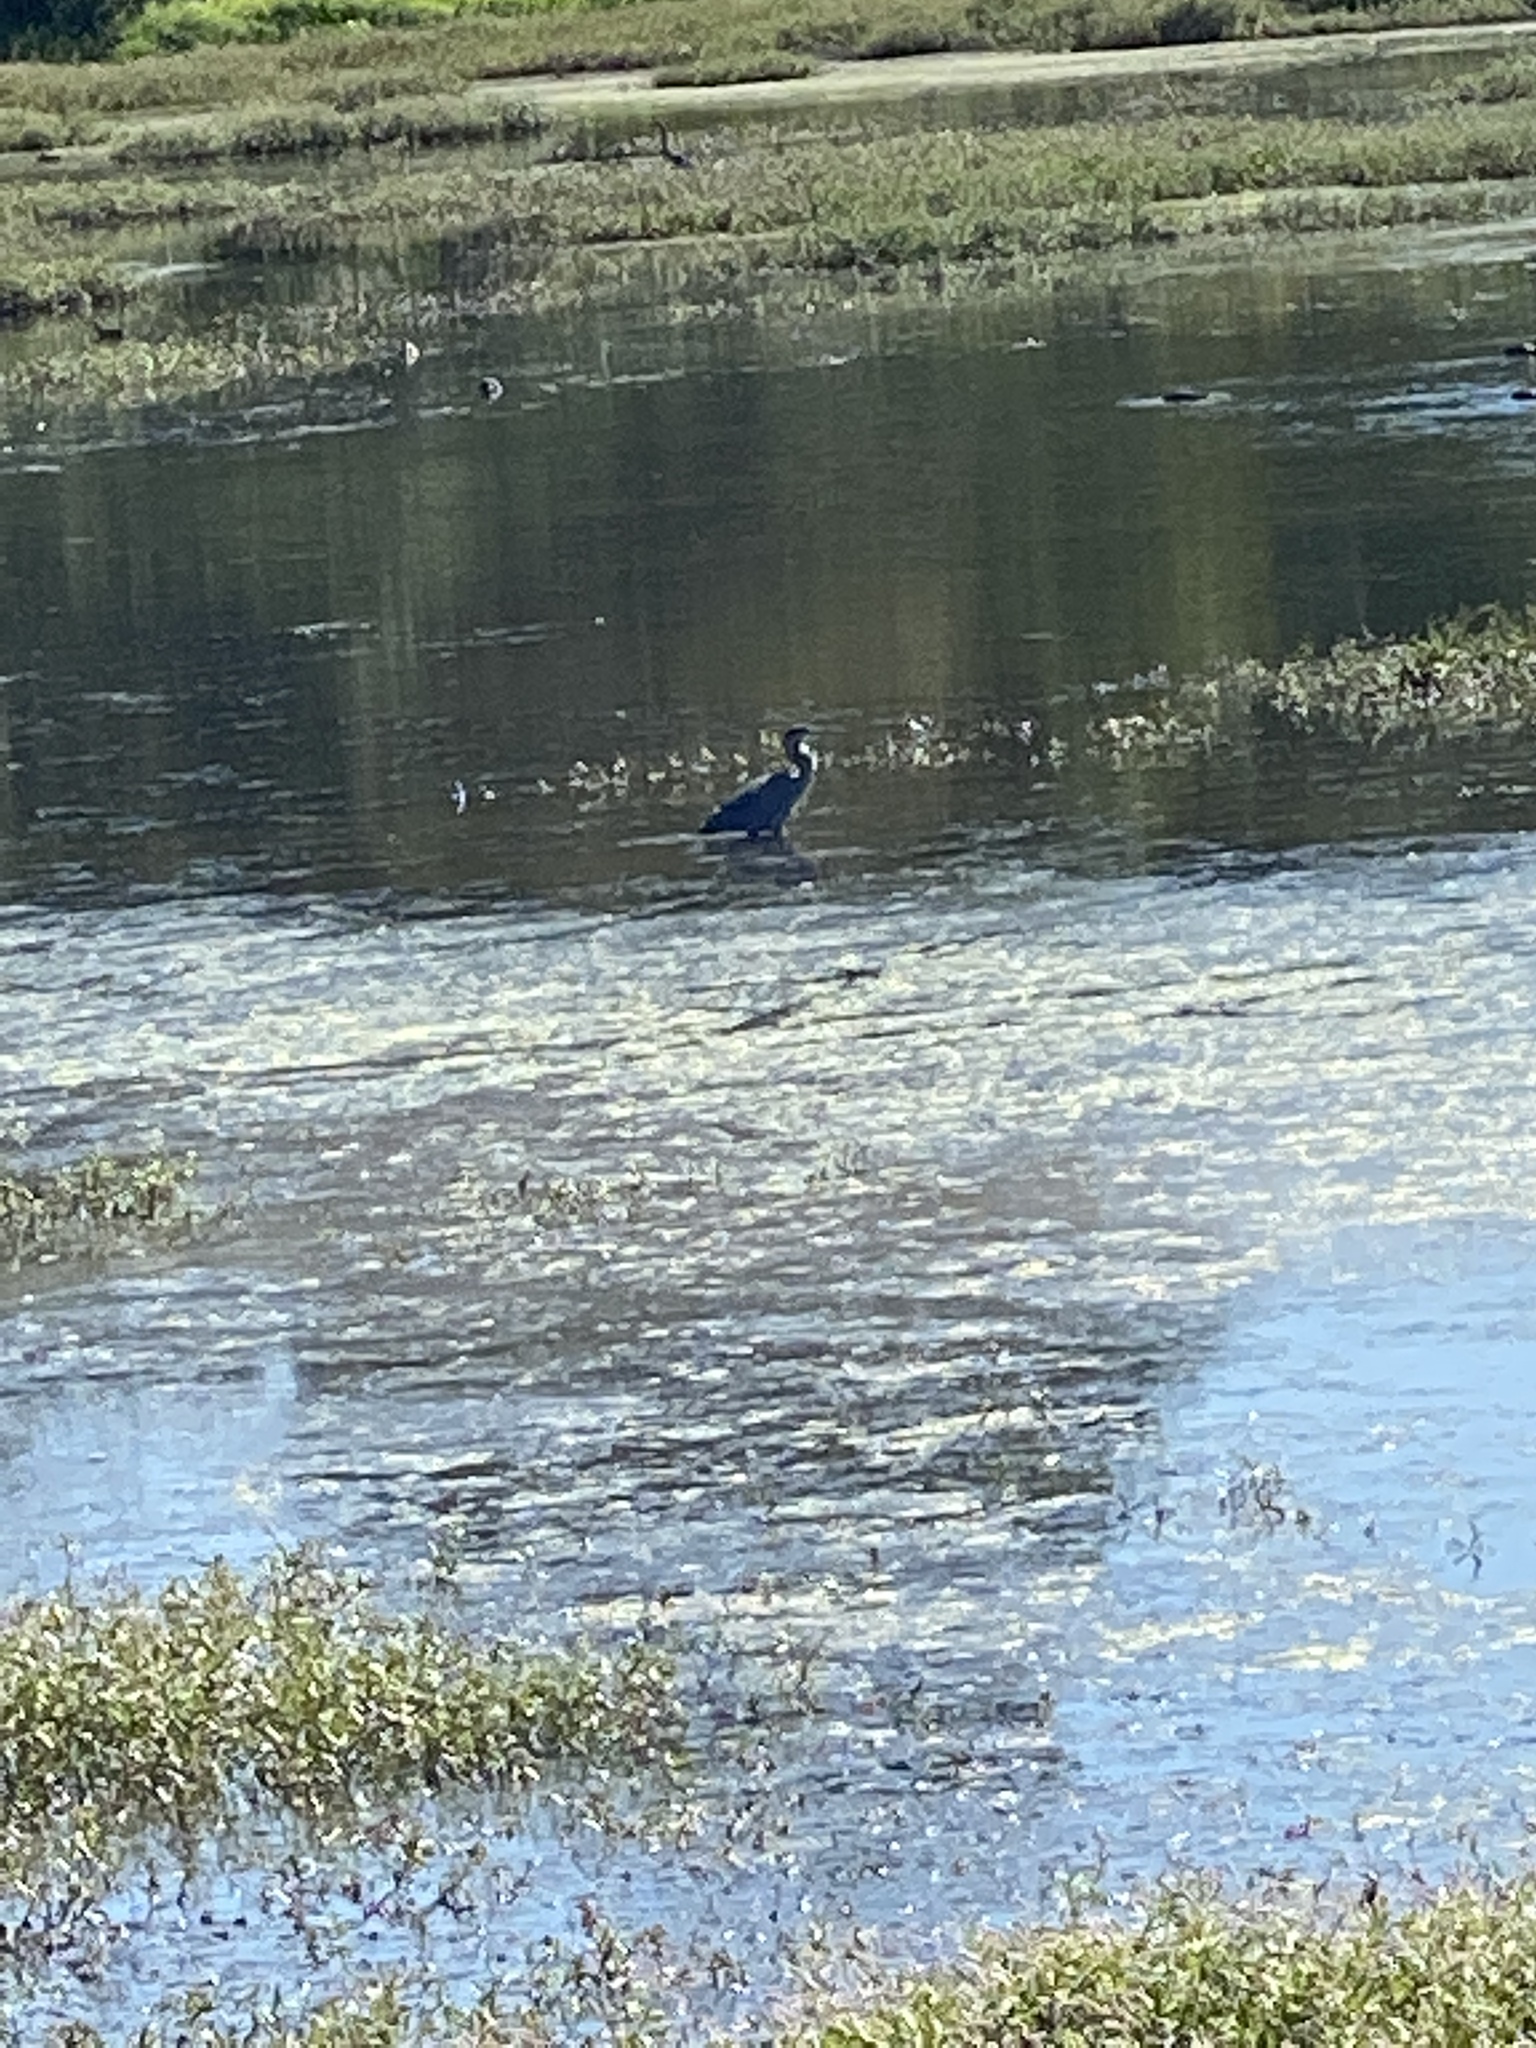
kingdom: Animalia
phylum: Chordata
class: Aves
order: Pelecaniformes
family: Ardeidae
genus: Ardea
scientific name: Ardea herodias
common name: Great blue heron
